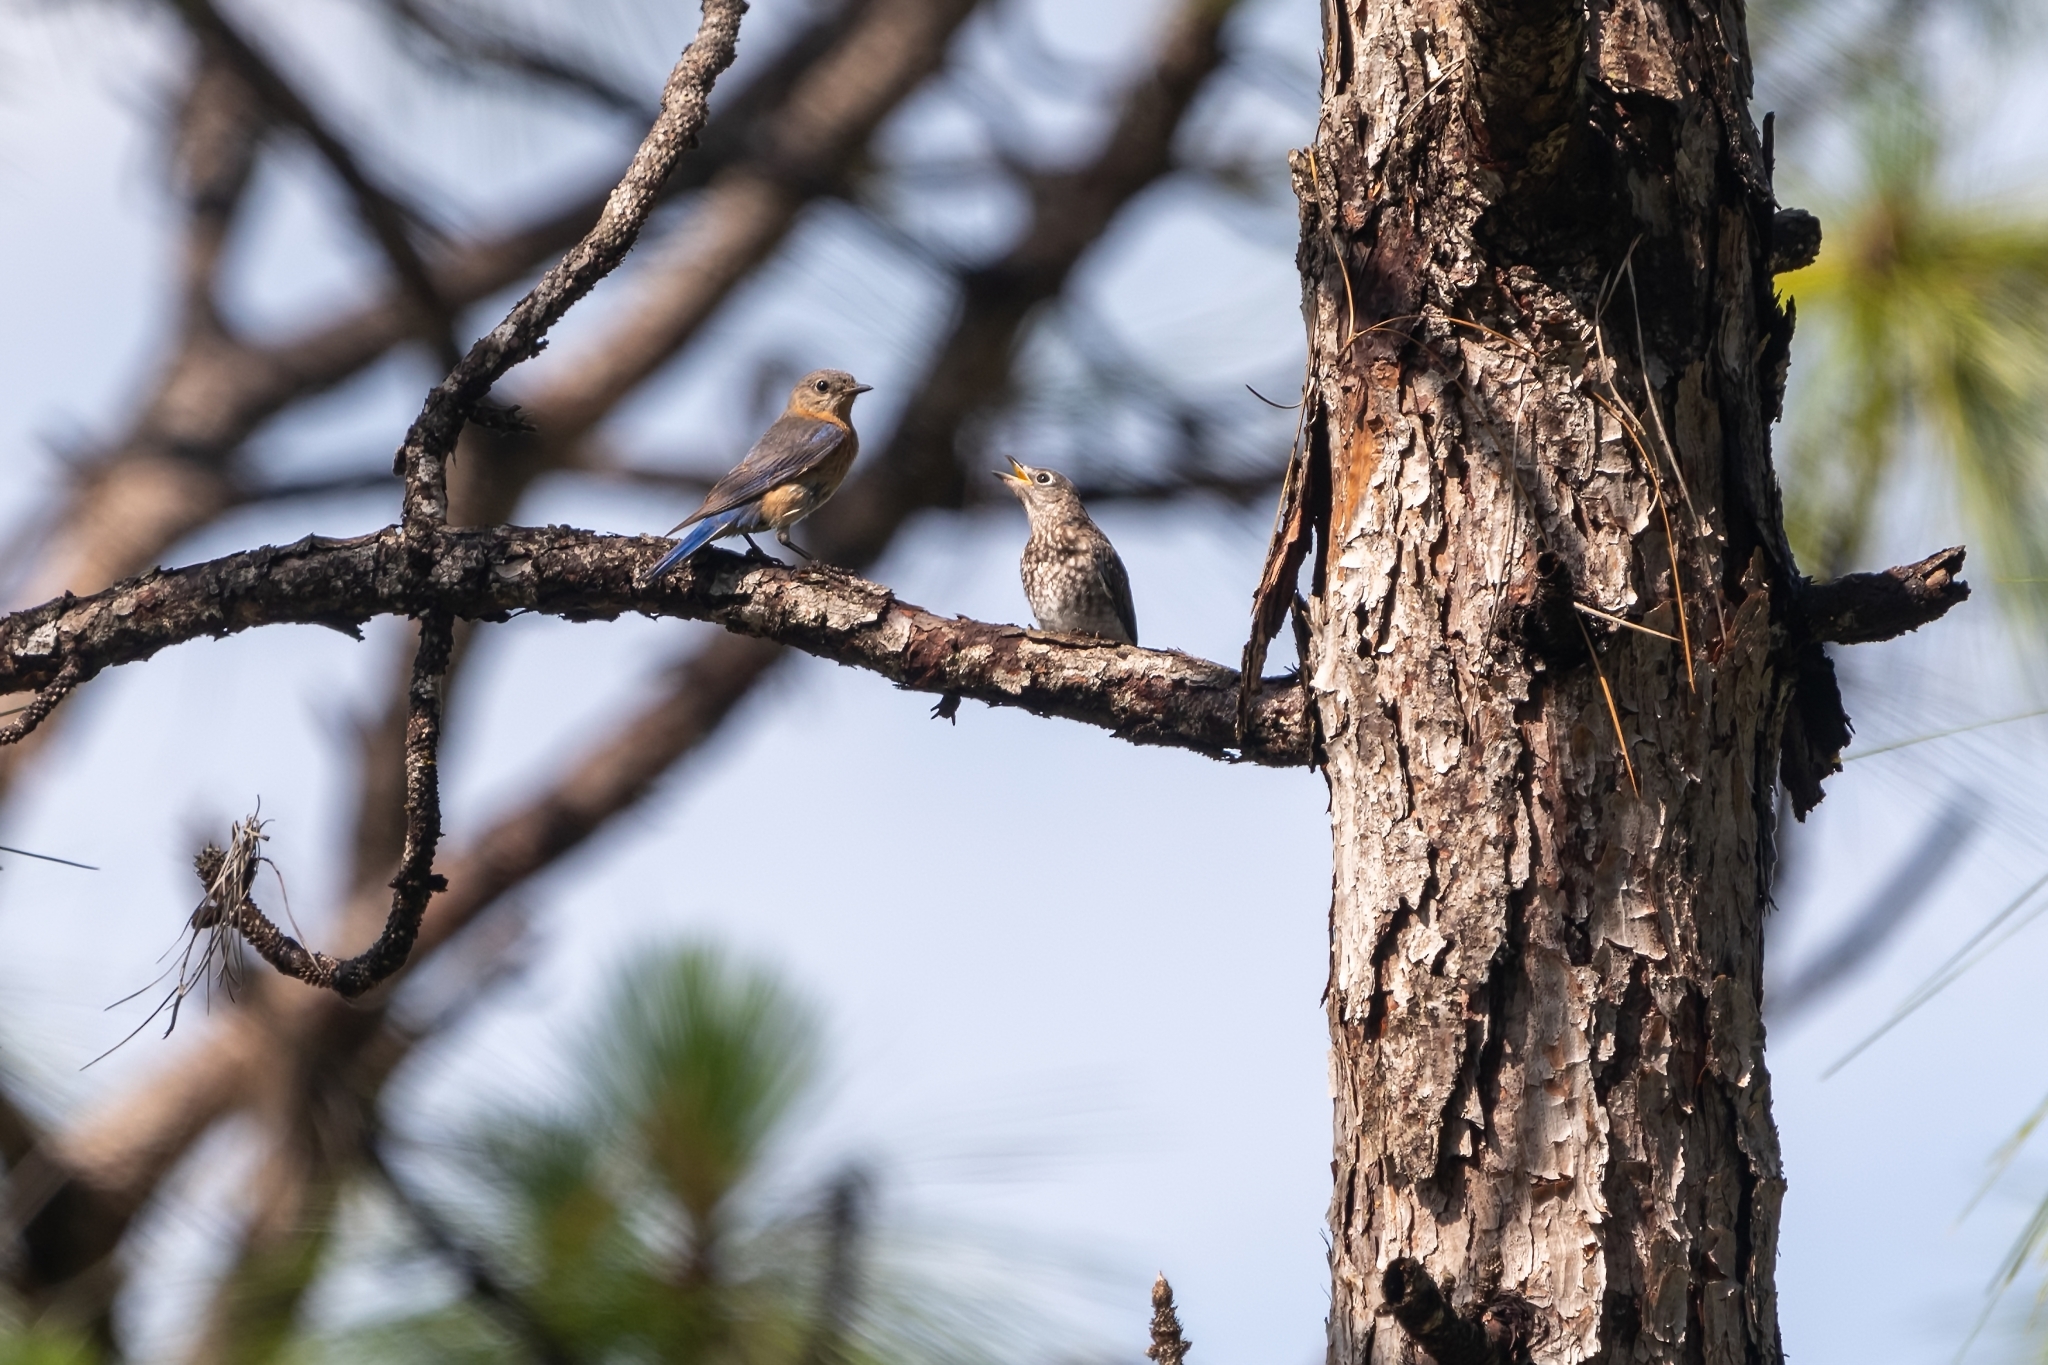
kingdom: Animalia
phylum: Chordata
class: Aves
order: Passeriformes
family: Turdidae
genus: Sialia
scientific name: Sialia sialis
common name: Eastern bluebird
